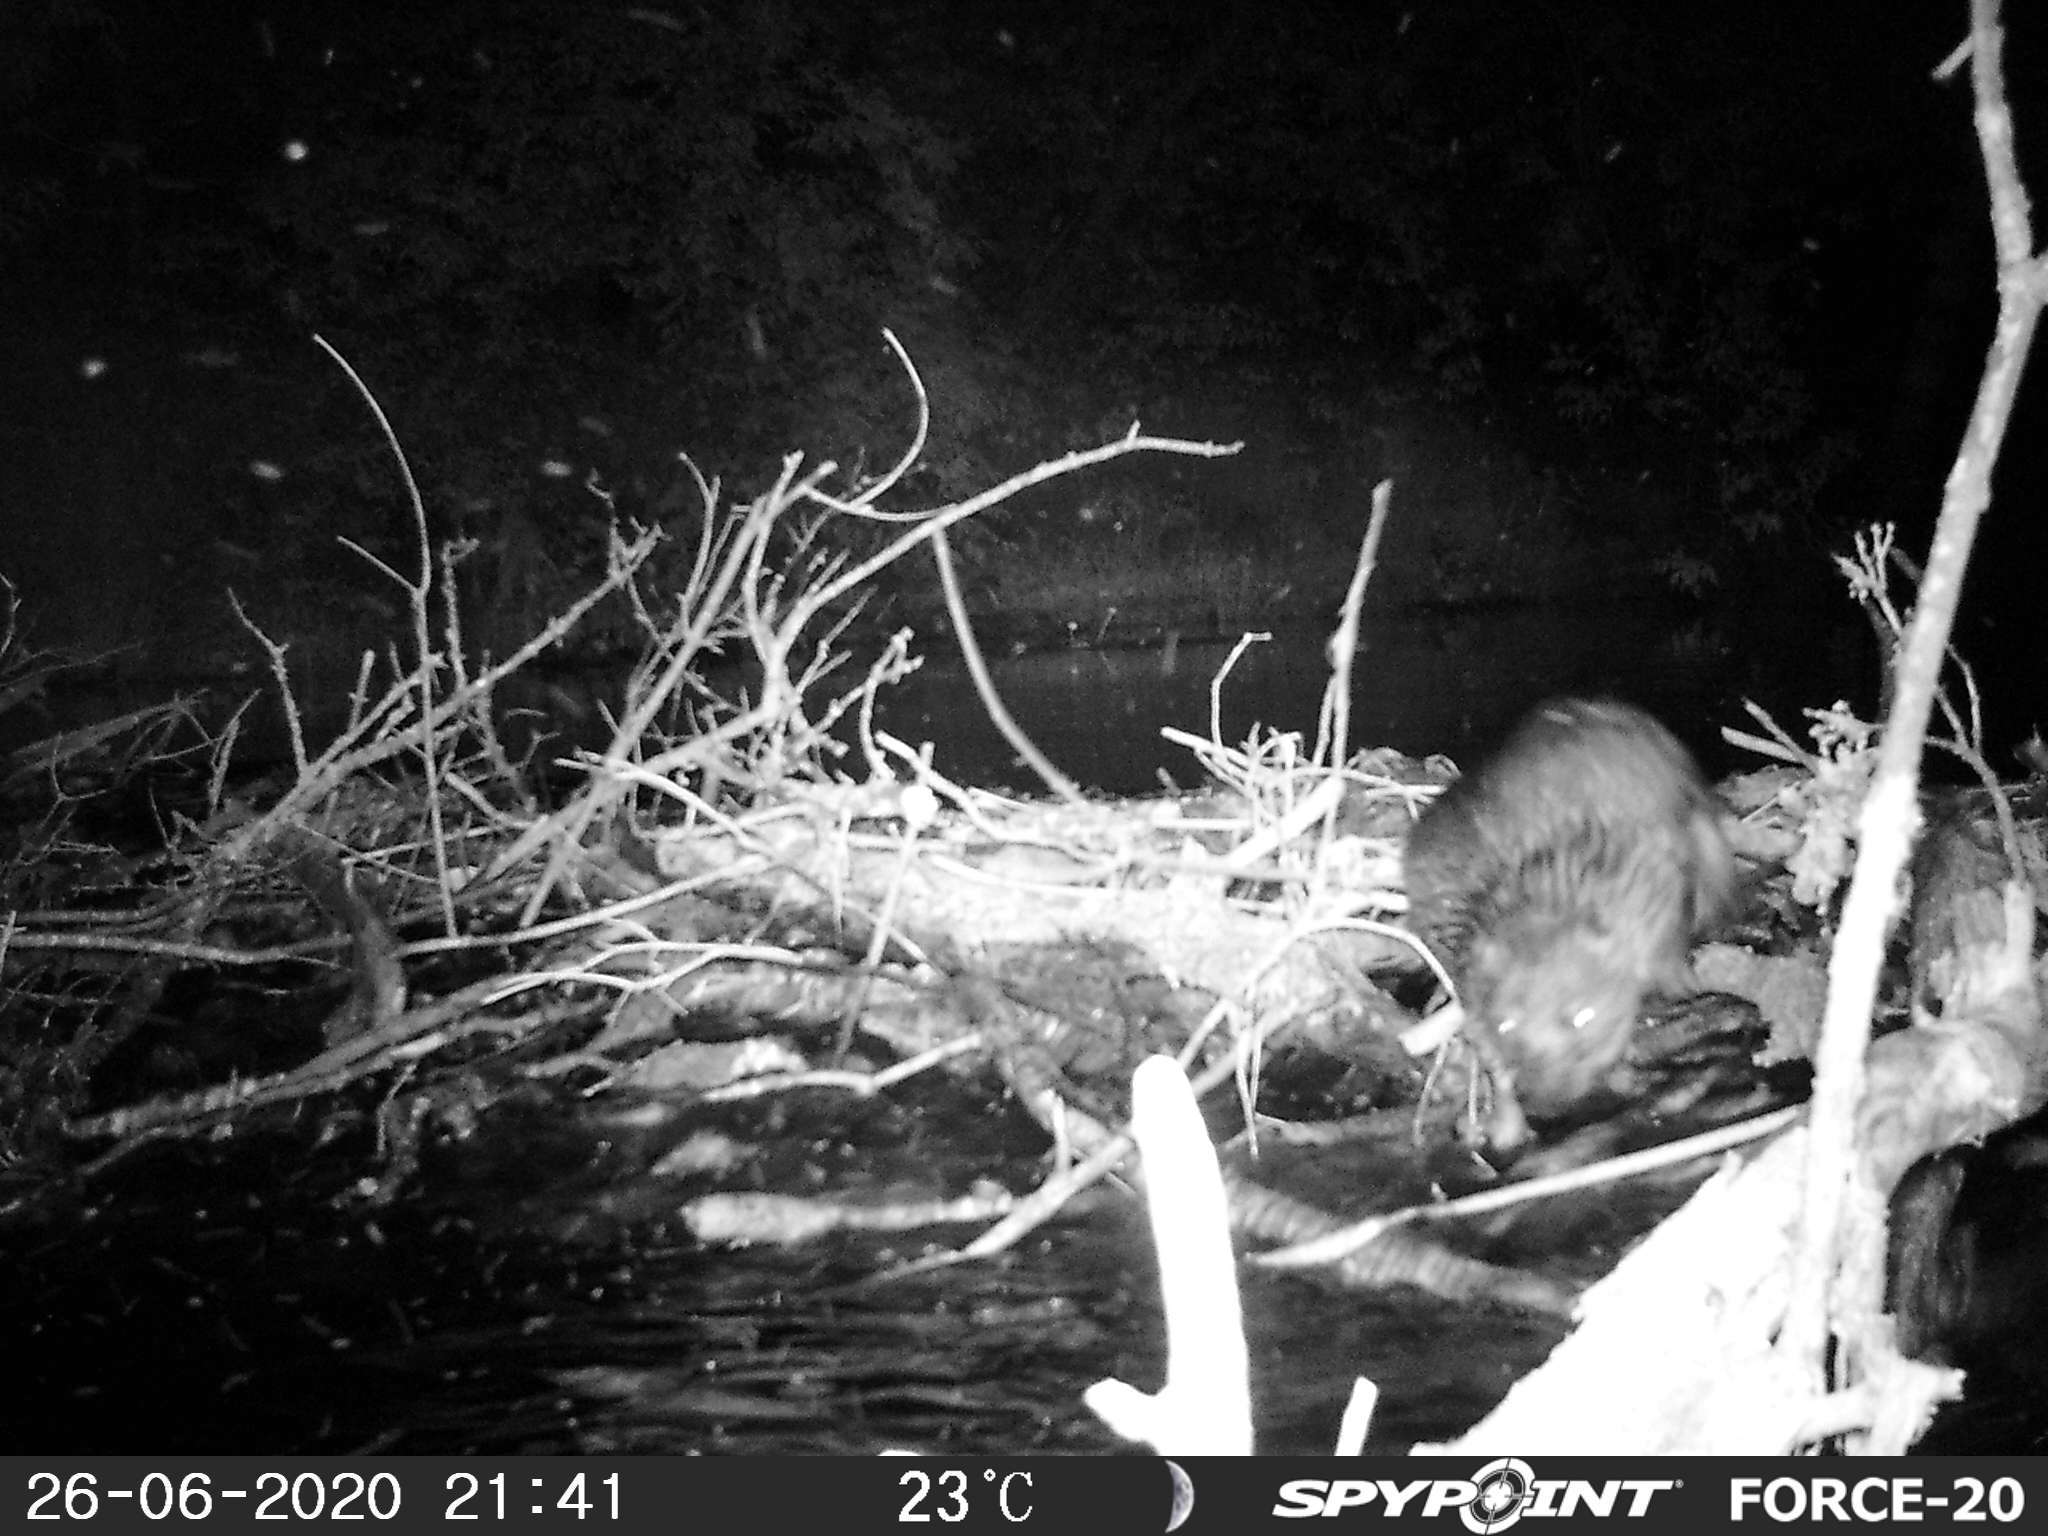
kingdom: Animalia
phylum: Chordata
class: Mammalia
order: Rodentia
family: Castoridae
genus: Castor
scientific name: Castor canadensis
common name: American beaver
